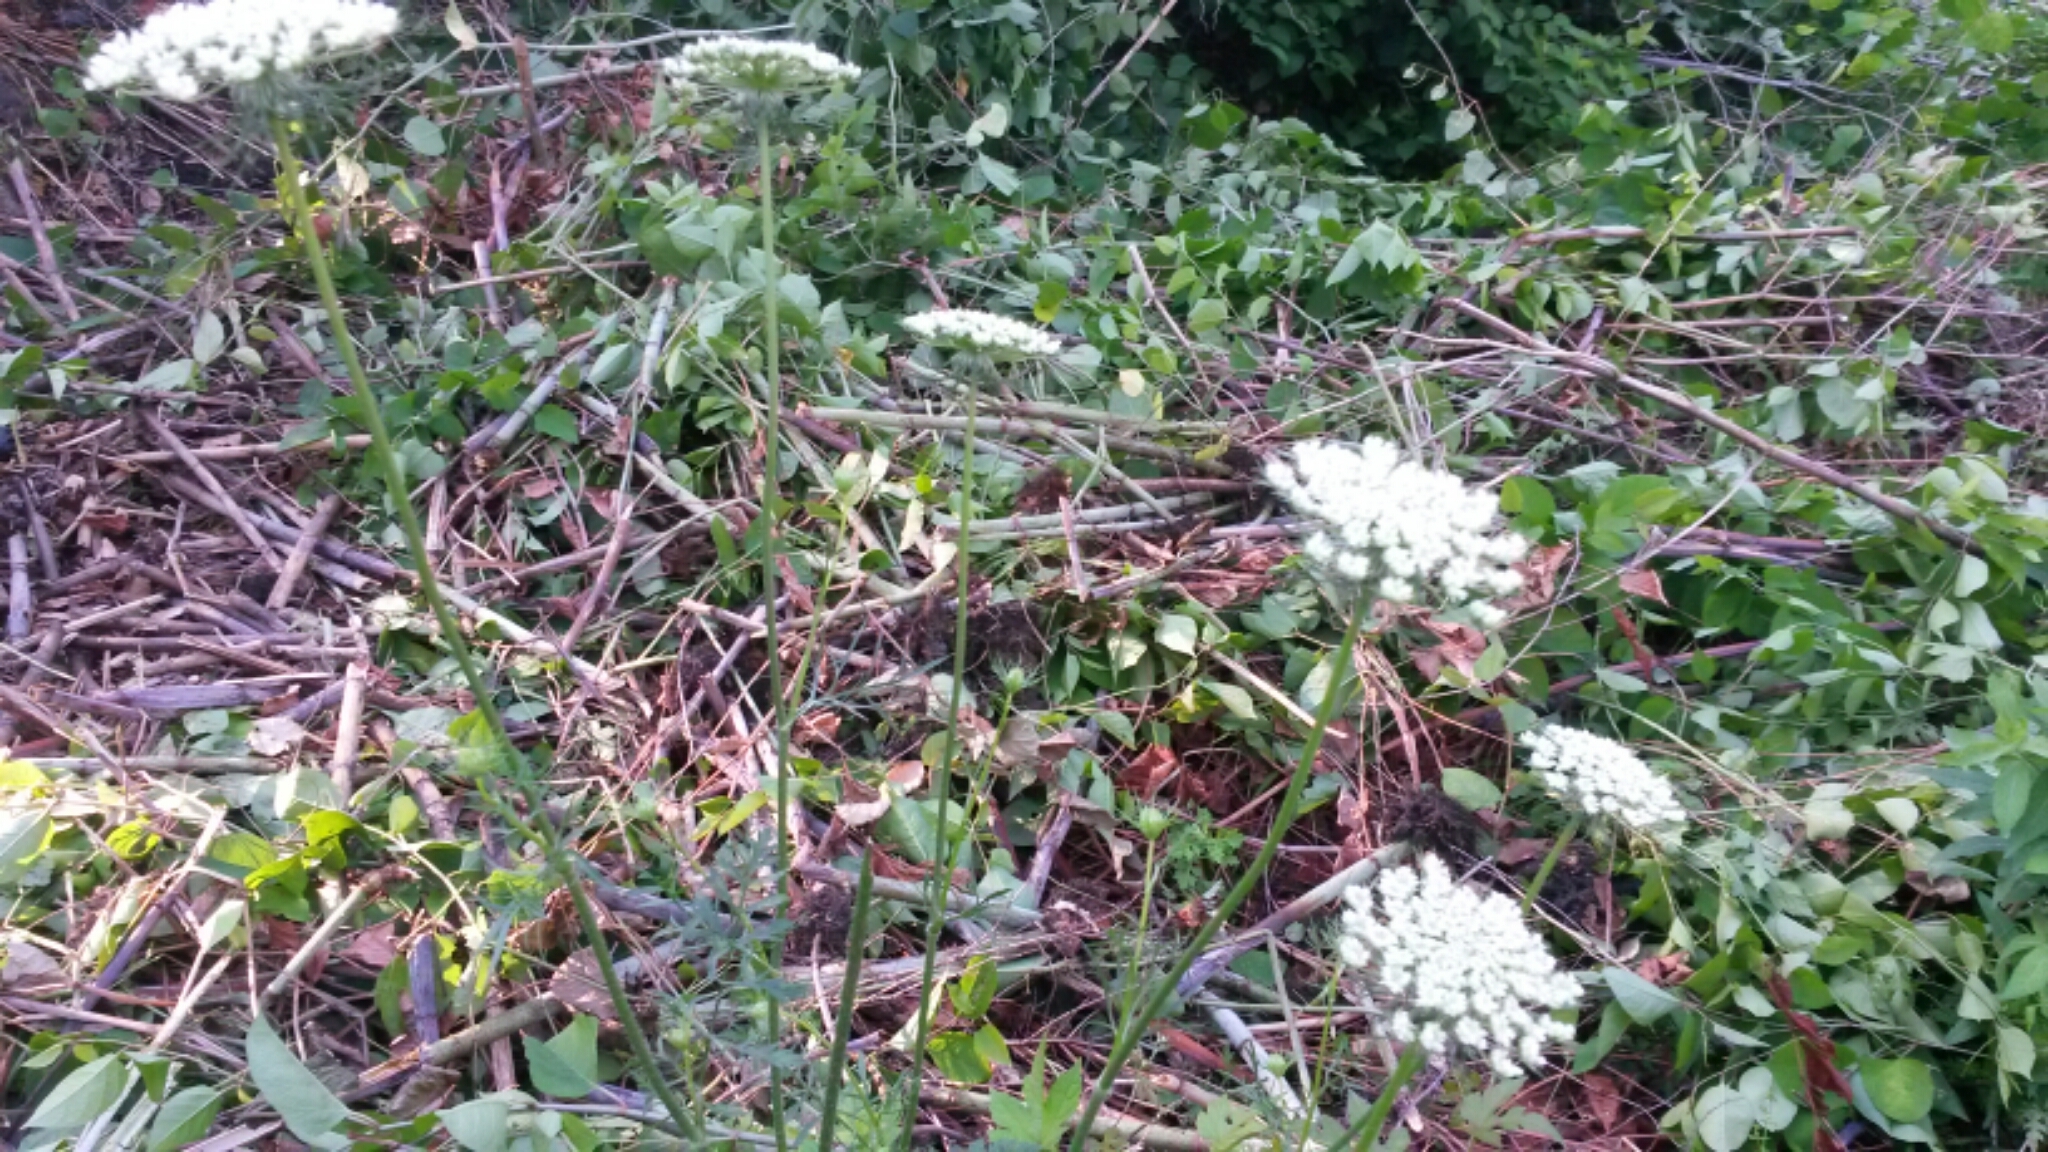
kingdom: Plantae
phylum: Tracheophyta
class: Magnoliopsida
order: Apiales
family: Apiaceae
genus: Daucus
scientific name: Daucus carota
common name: Wild carrot
